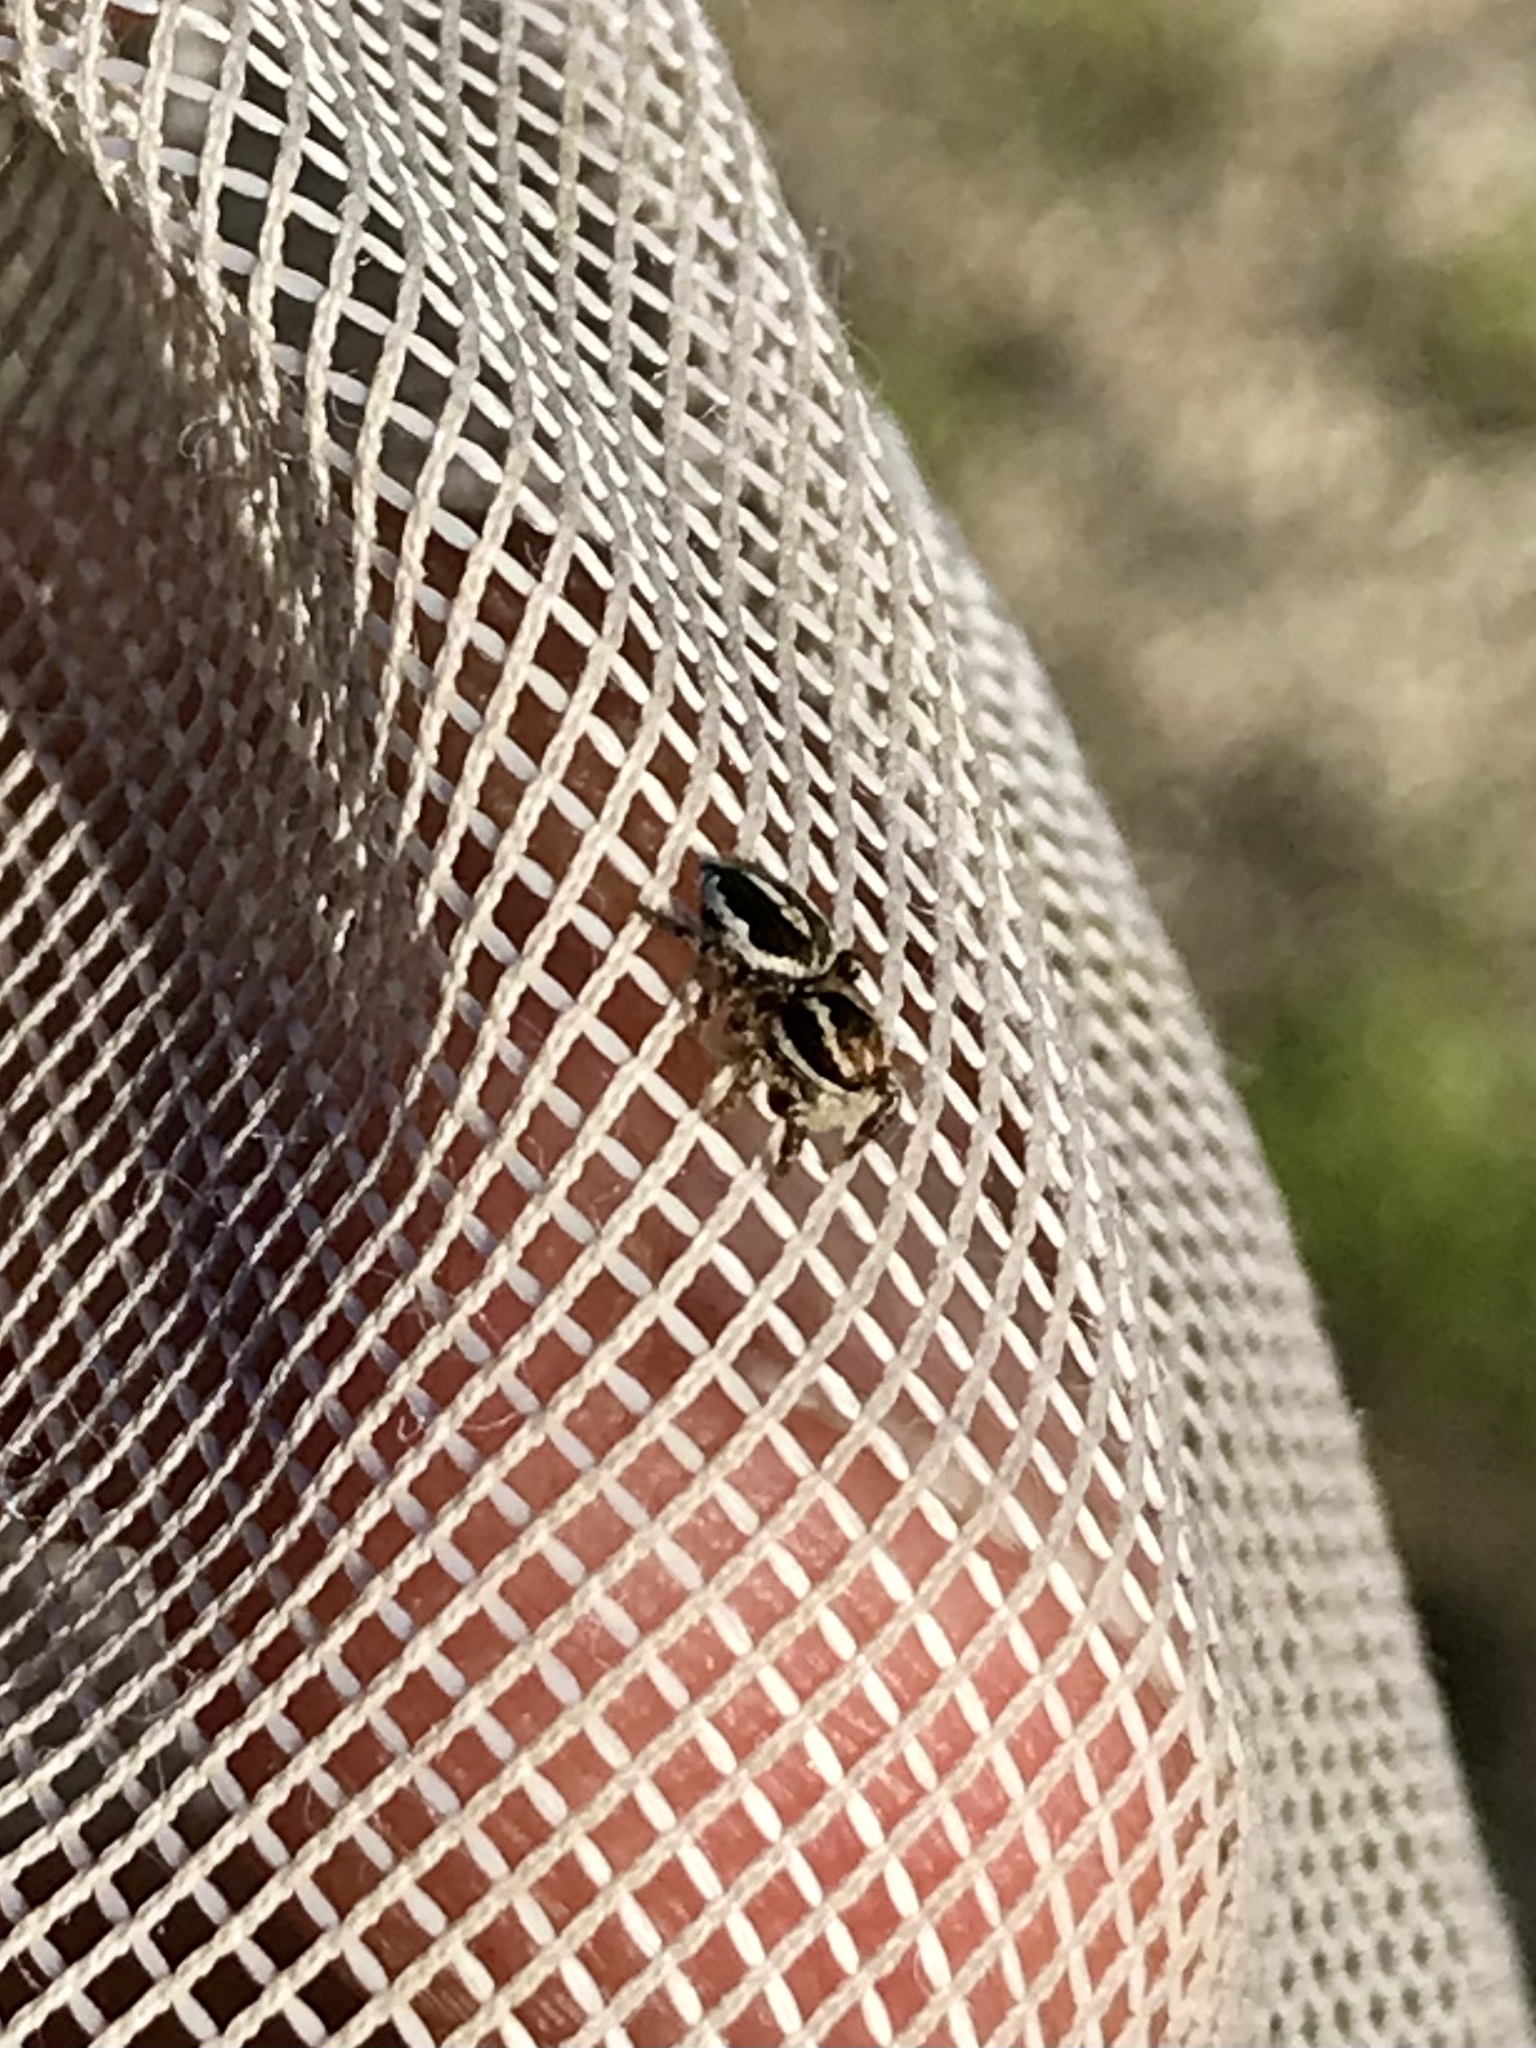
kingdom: Animalia
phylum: Arthropoda
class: Arachnida
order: Araneae
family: Salticidae
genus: Habronattus
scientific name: Habronattus cognatus
